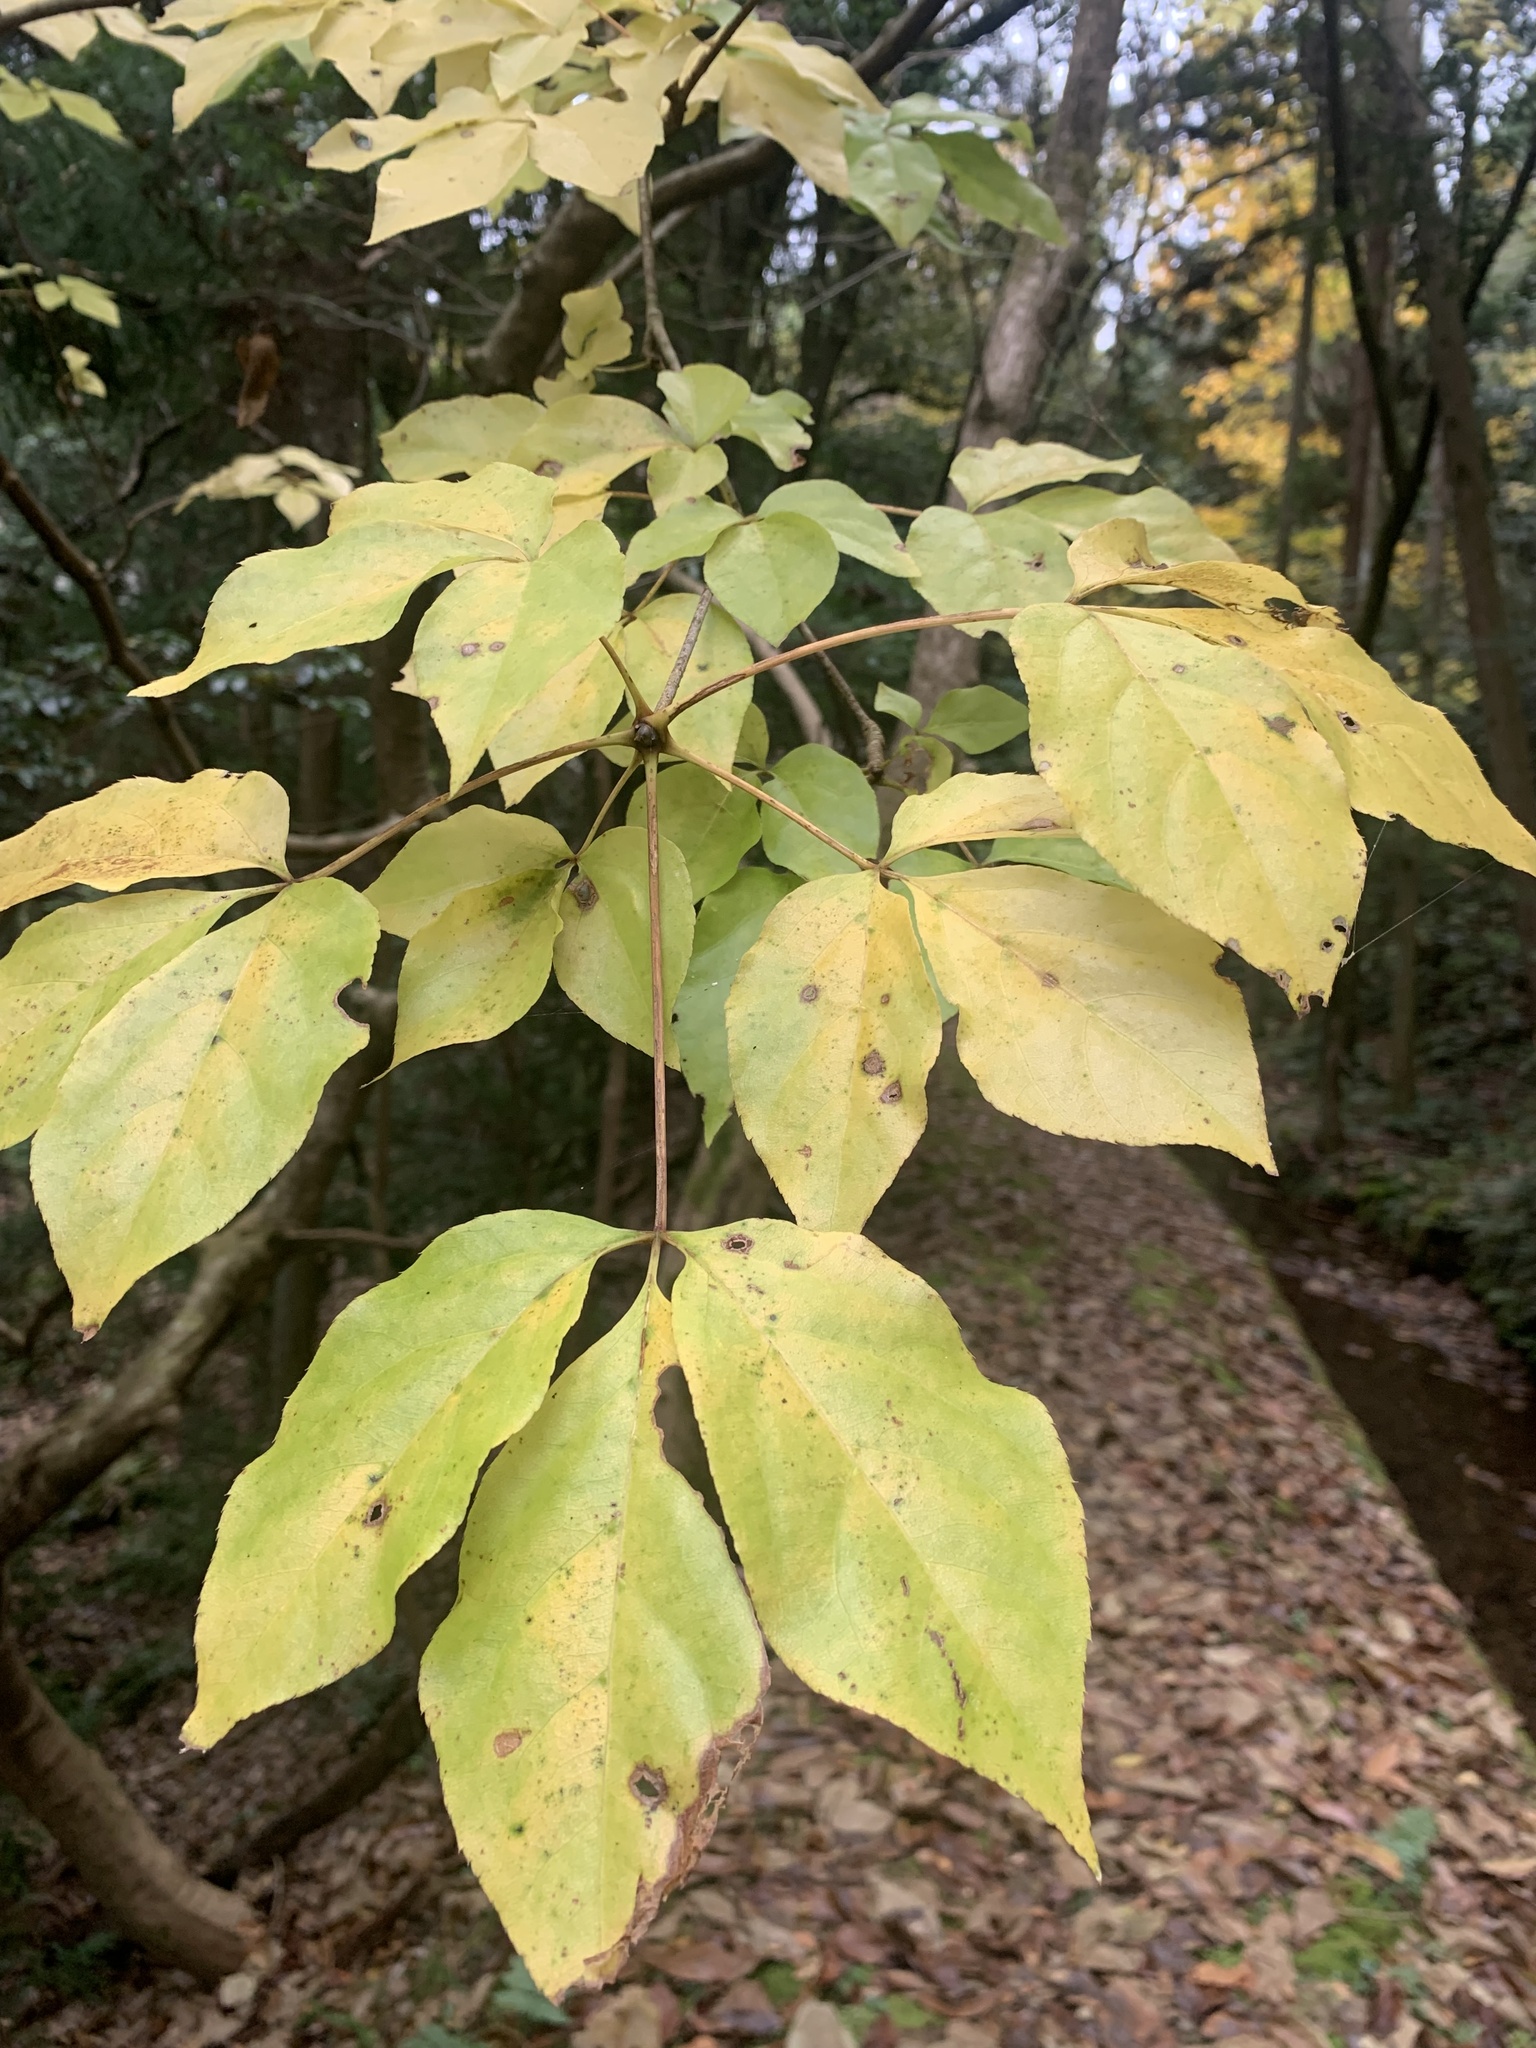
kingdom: Plantae
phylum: Tracheophyta
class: Magnoliopsida
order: Apiales
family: Araliaceae
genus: Gamblea
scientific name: Gamblea innovans
